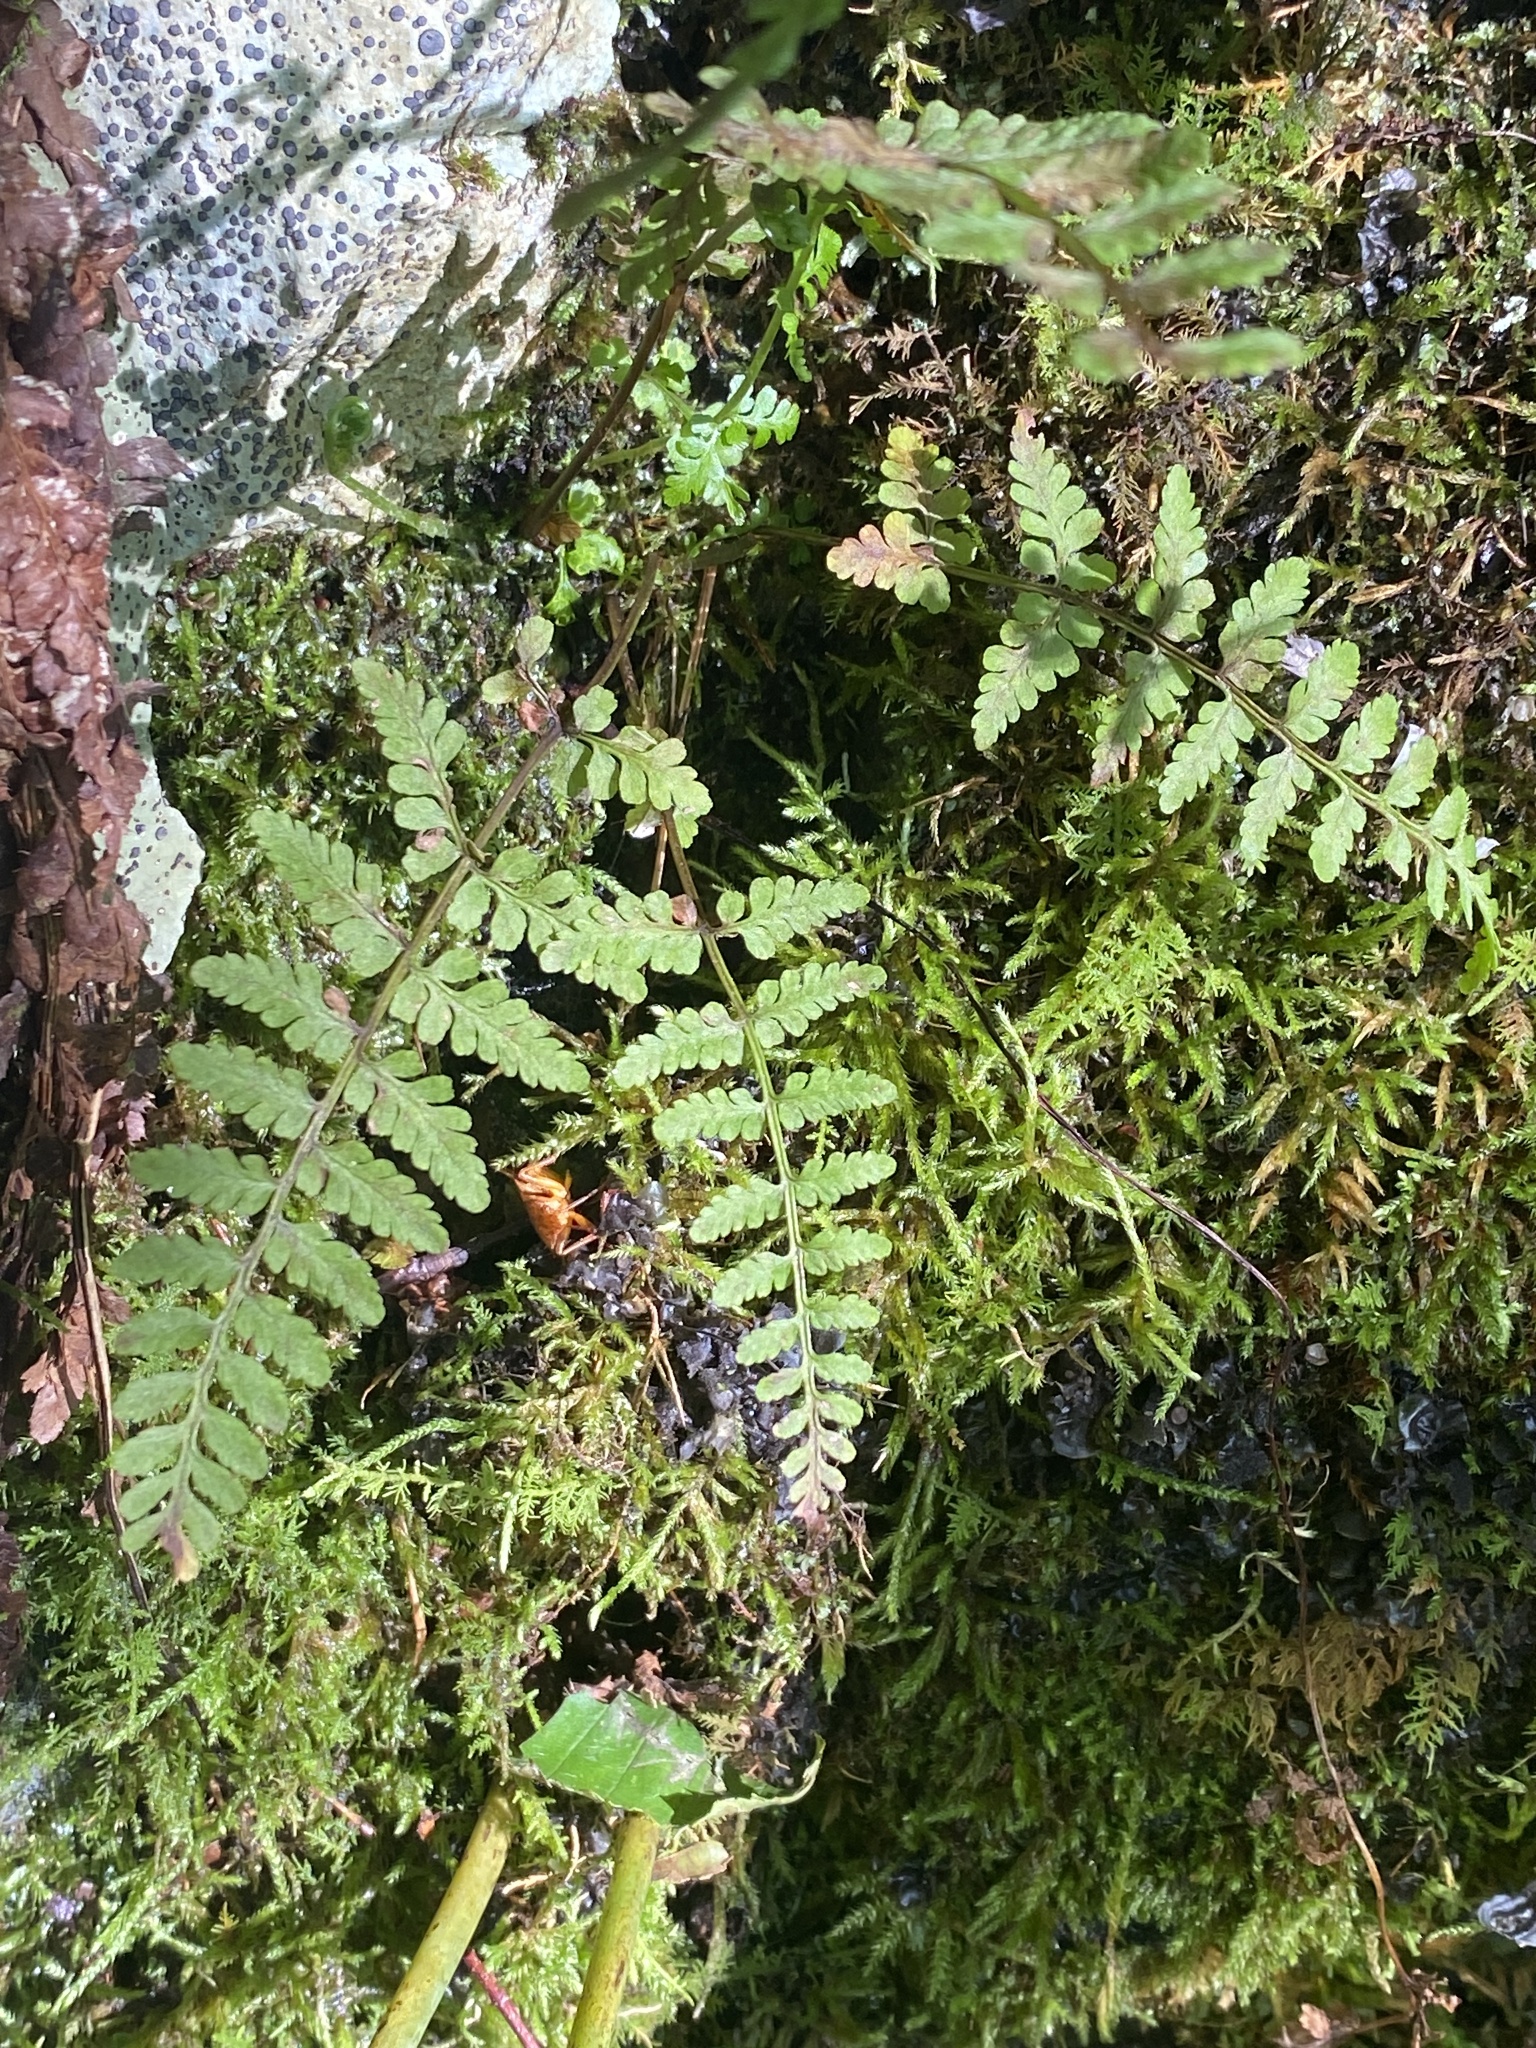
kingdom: Plantae
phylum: Tracheophyta
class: Polypodiopsida
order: Polypodiales
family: Cystopteridaceae
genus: Cystopteris
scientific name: Cystopteris fragilis
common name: Brittle bladder fern
